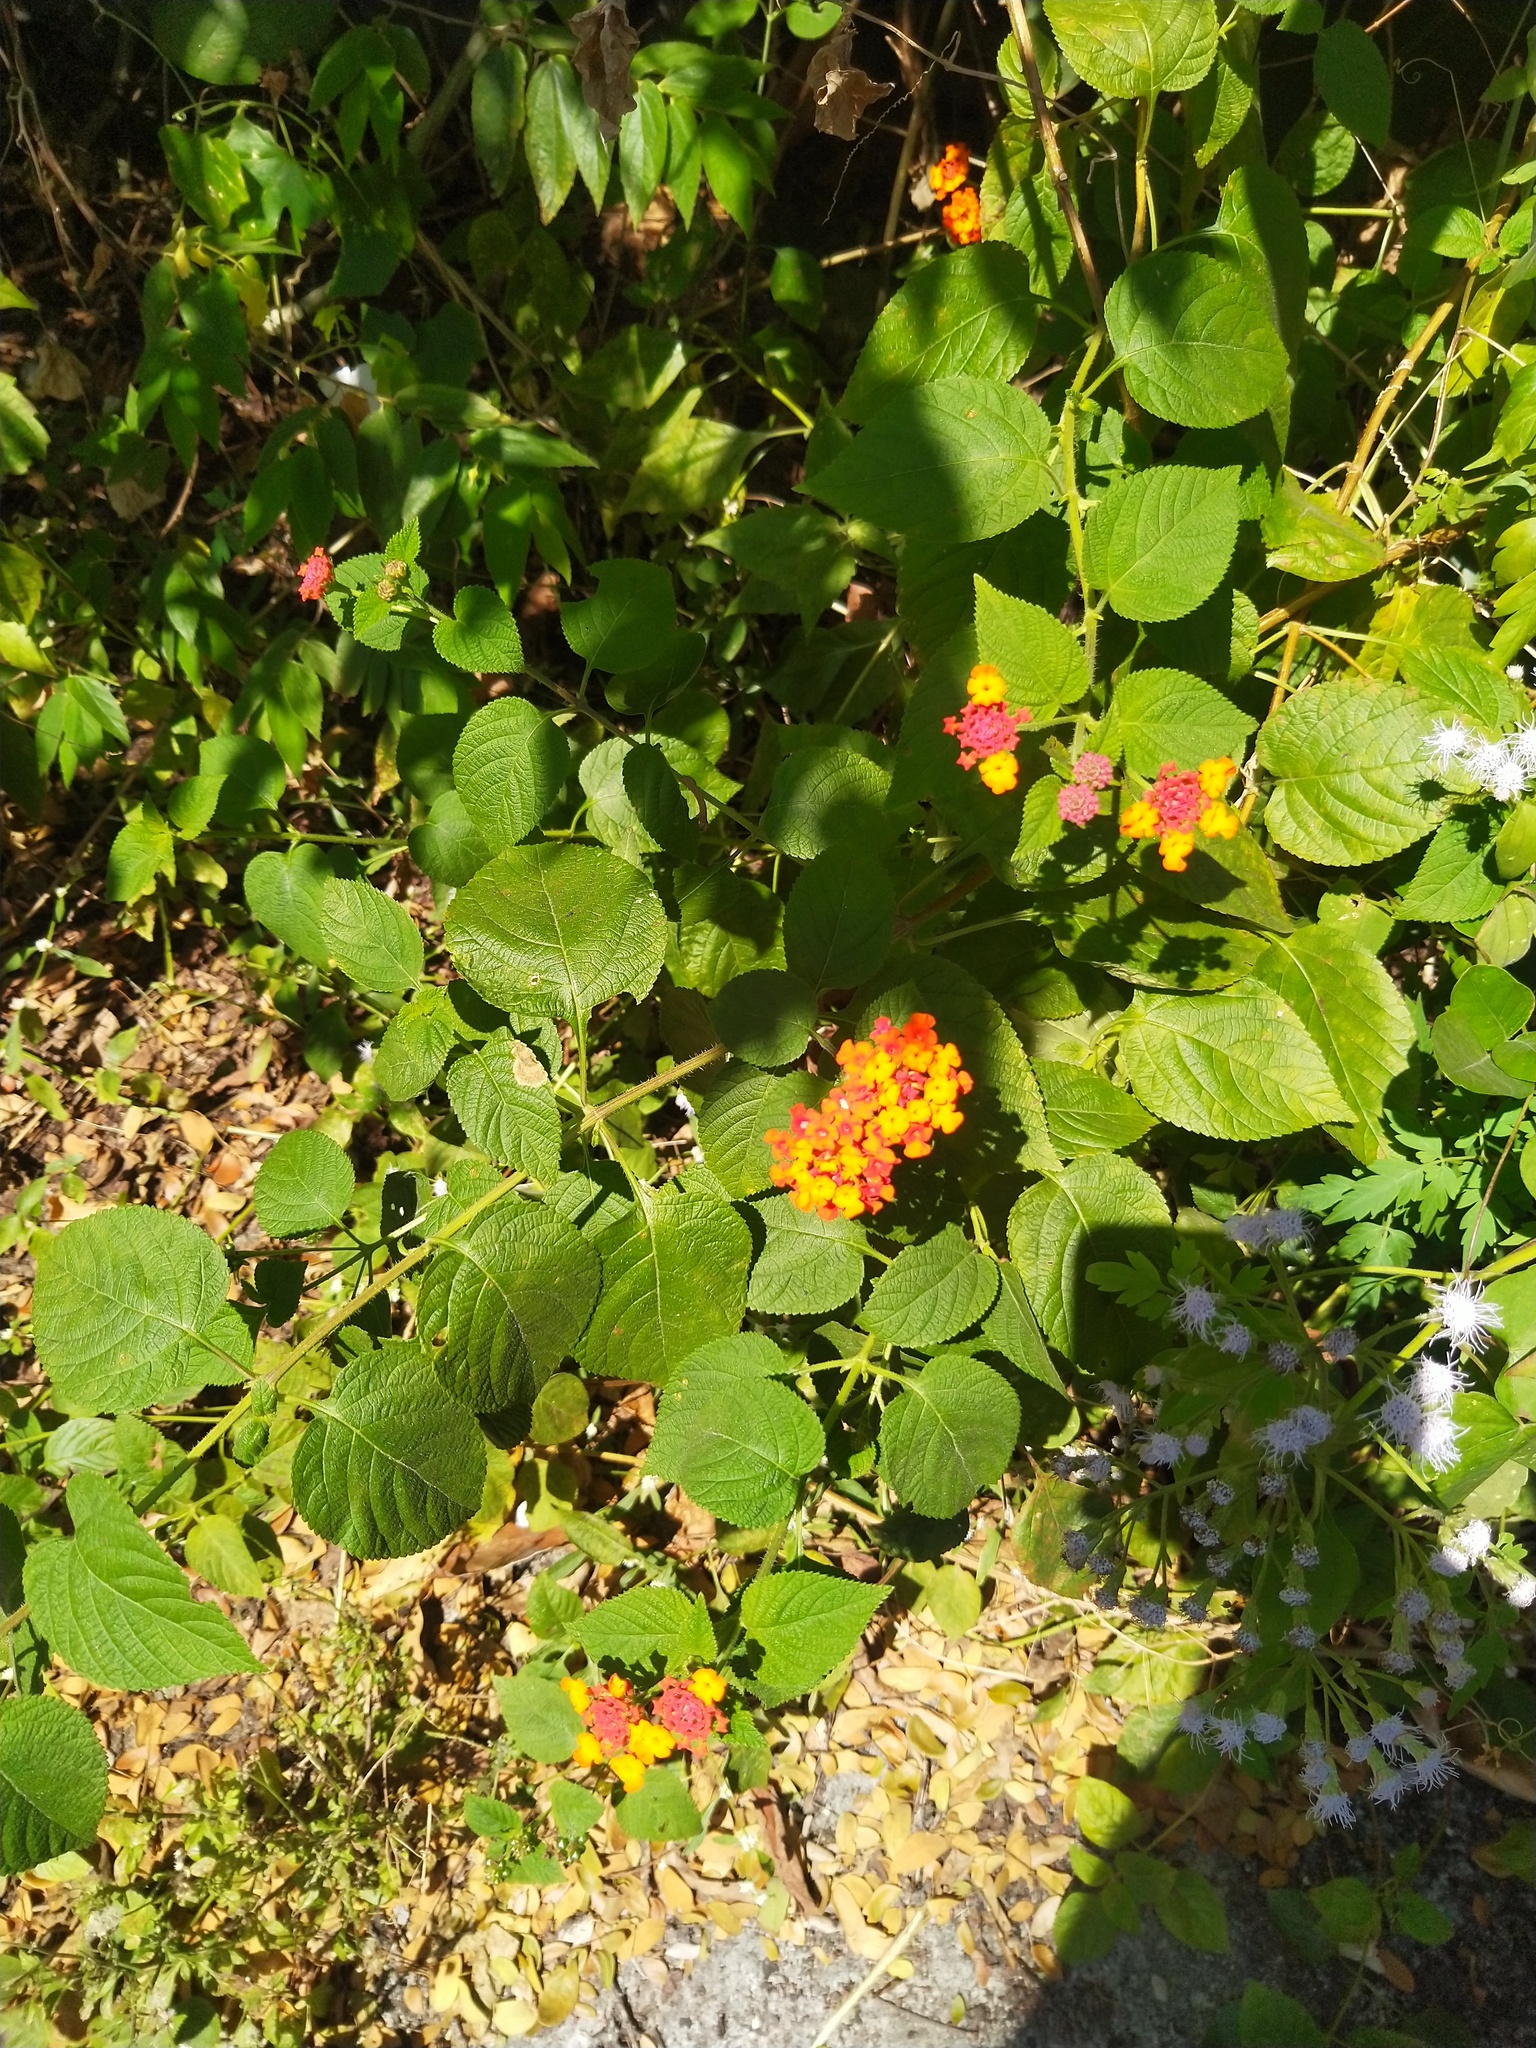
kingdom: Plantae
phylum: Tracheophyta
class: Magnoliopsida
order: Lamiales
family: Verbenaceae
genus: Lantana
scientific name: Lantana camara
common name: Lantana
